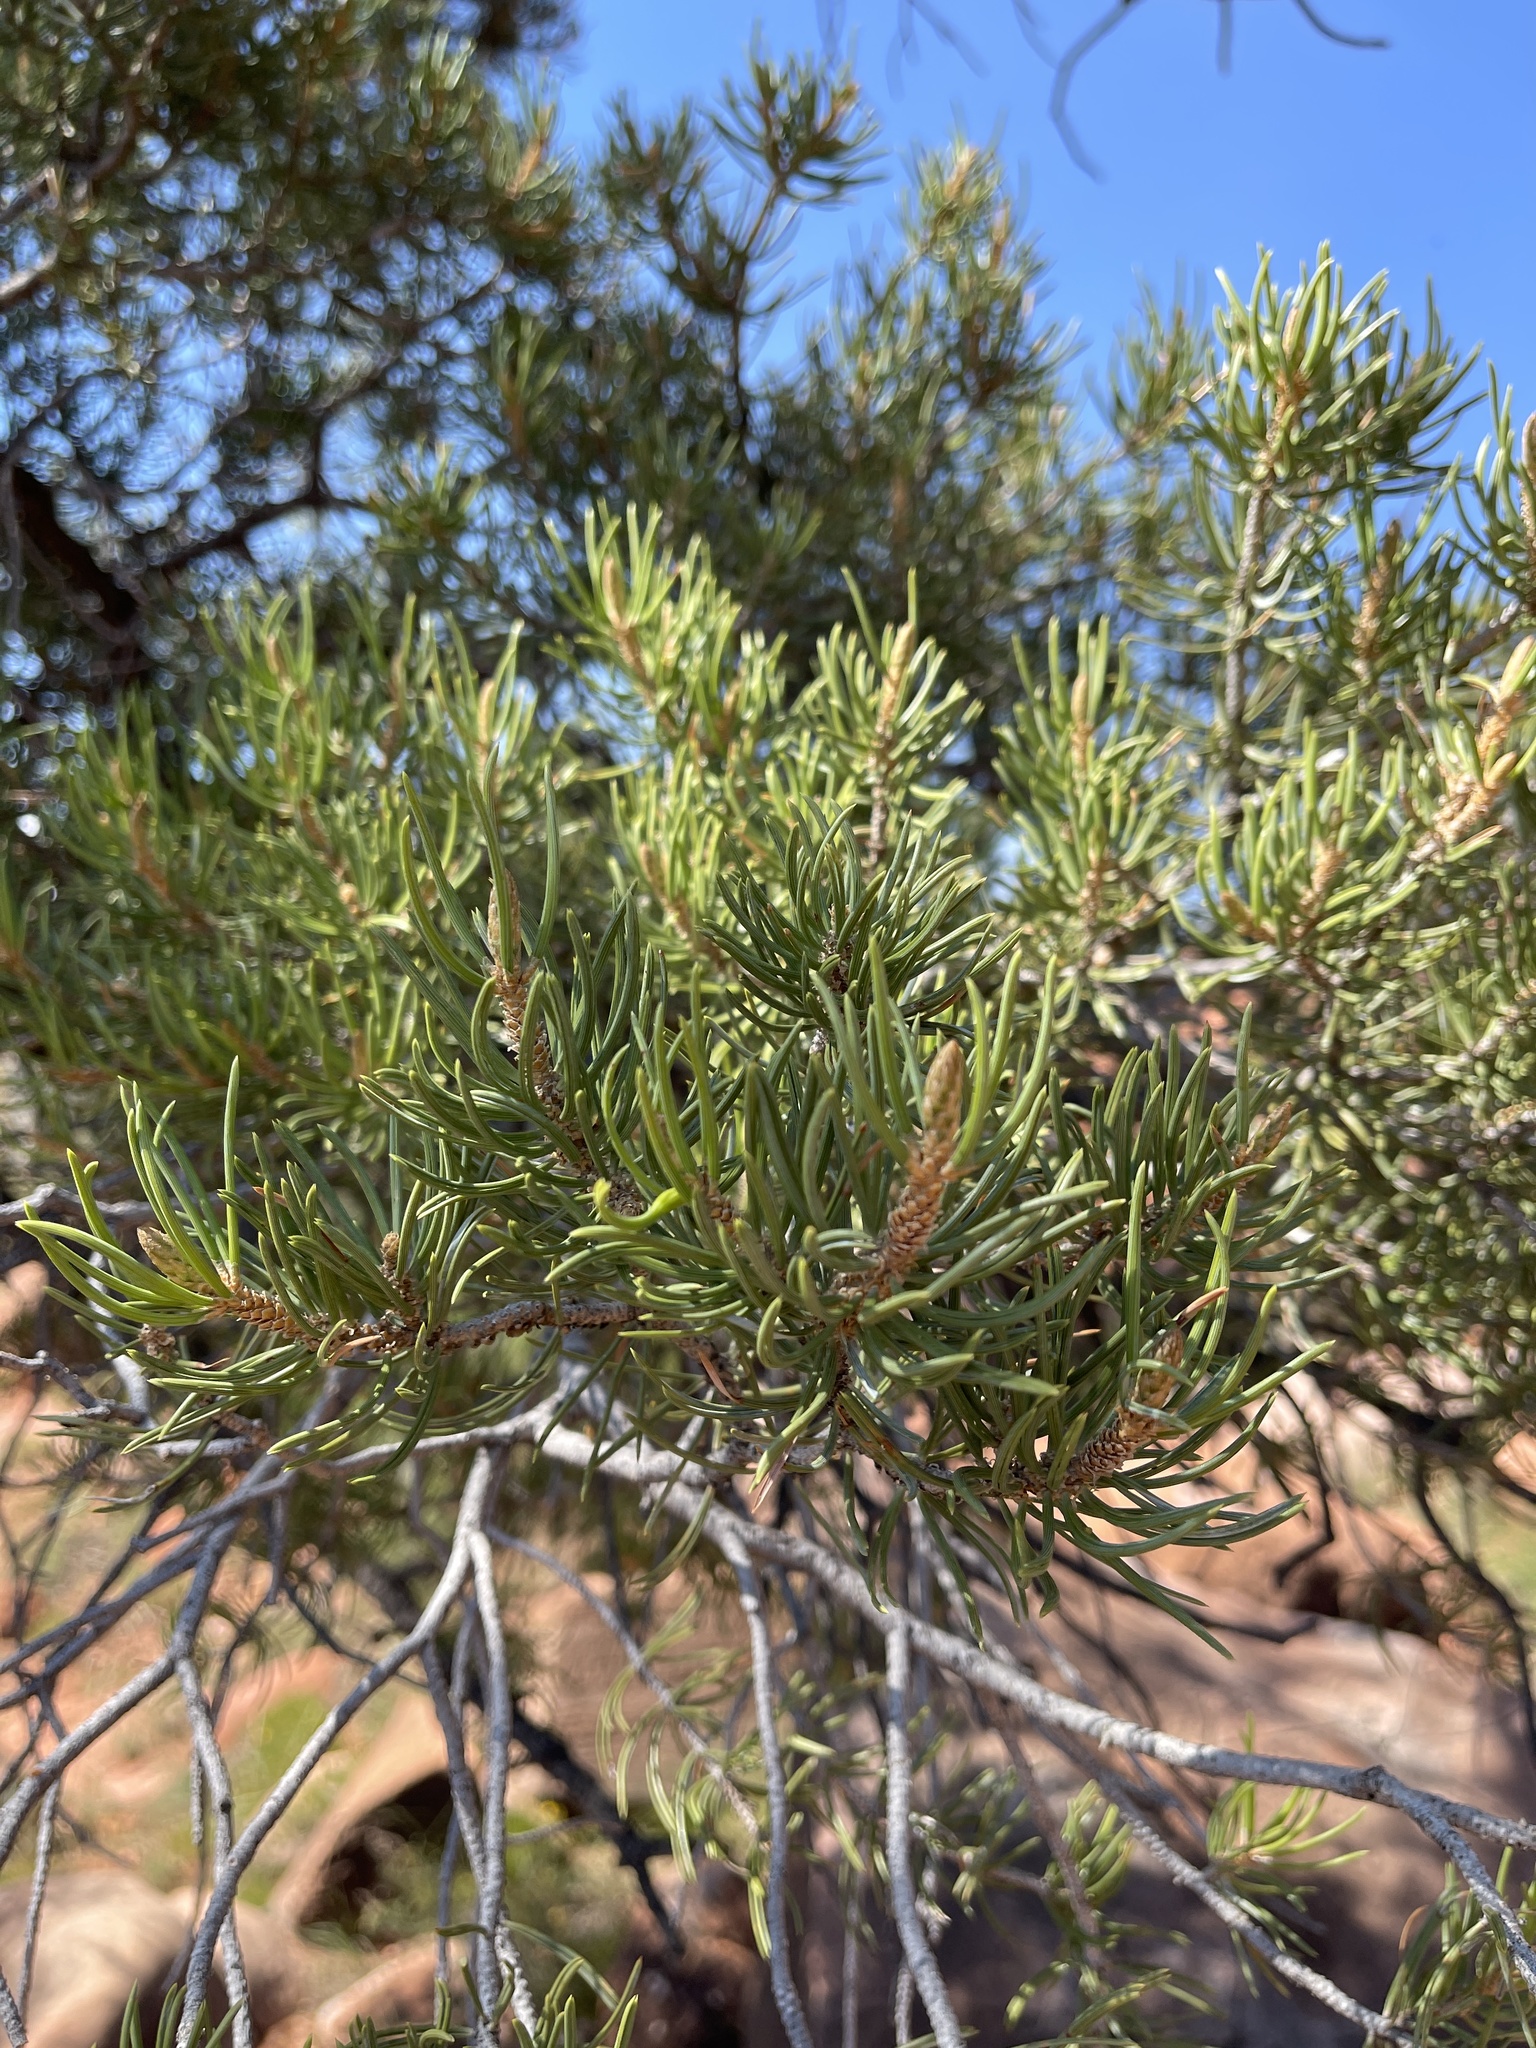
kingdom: Plantae
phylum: Tracheophyta
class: Pinopsida
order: Pinales
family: Pinaceae
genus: Pinus
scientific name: Pinus edulis
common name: Colorado pinyon
